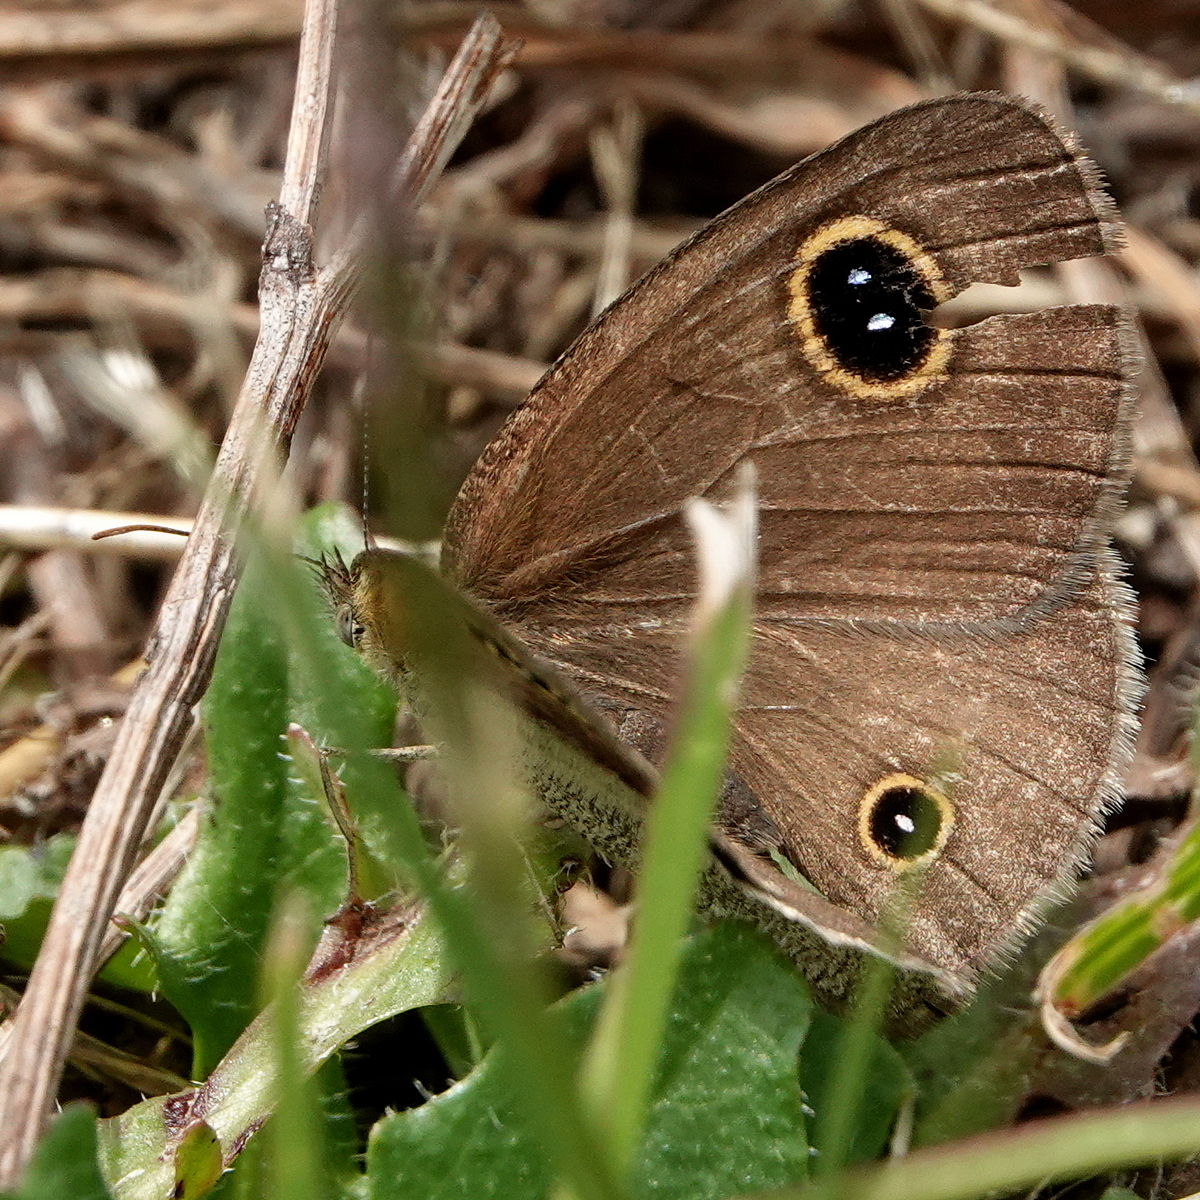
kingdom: Animalia
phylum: Arthropoda
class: Insecta
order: Lepidoptera
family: Nymphalidae
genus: Ypthima
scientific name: Ypthima arctous
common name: Dusky knight
